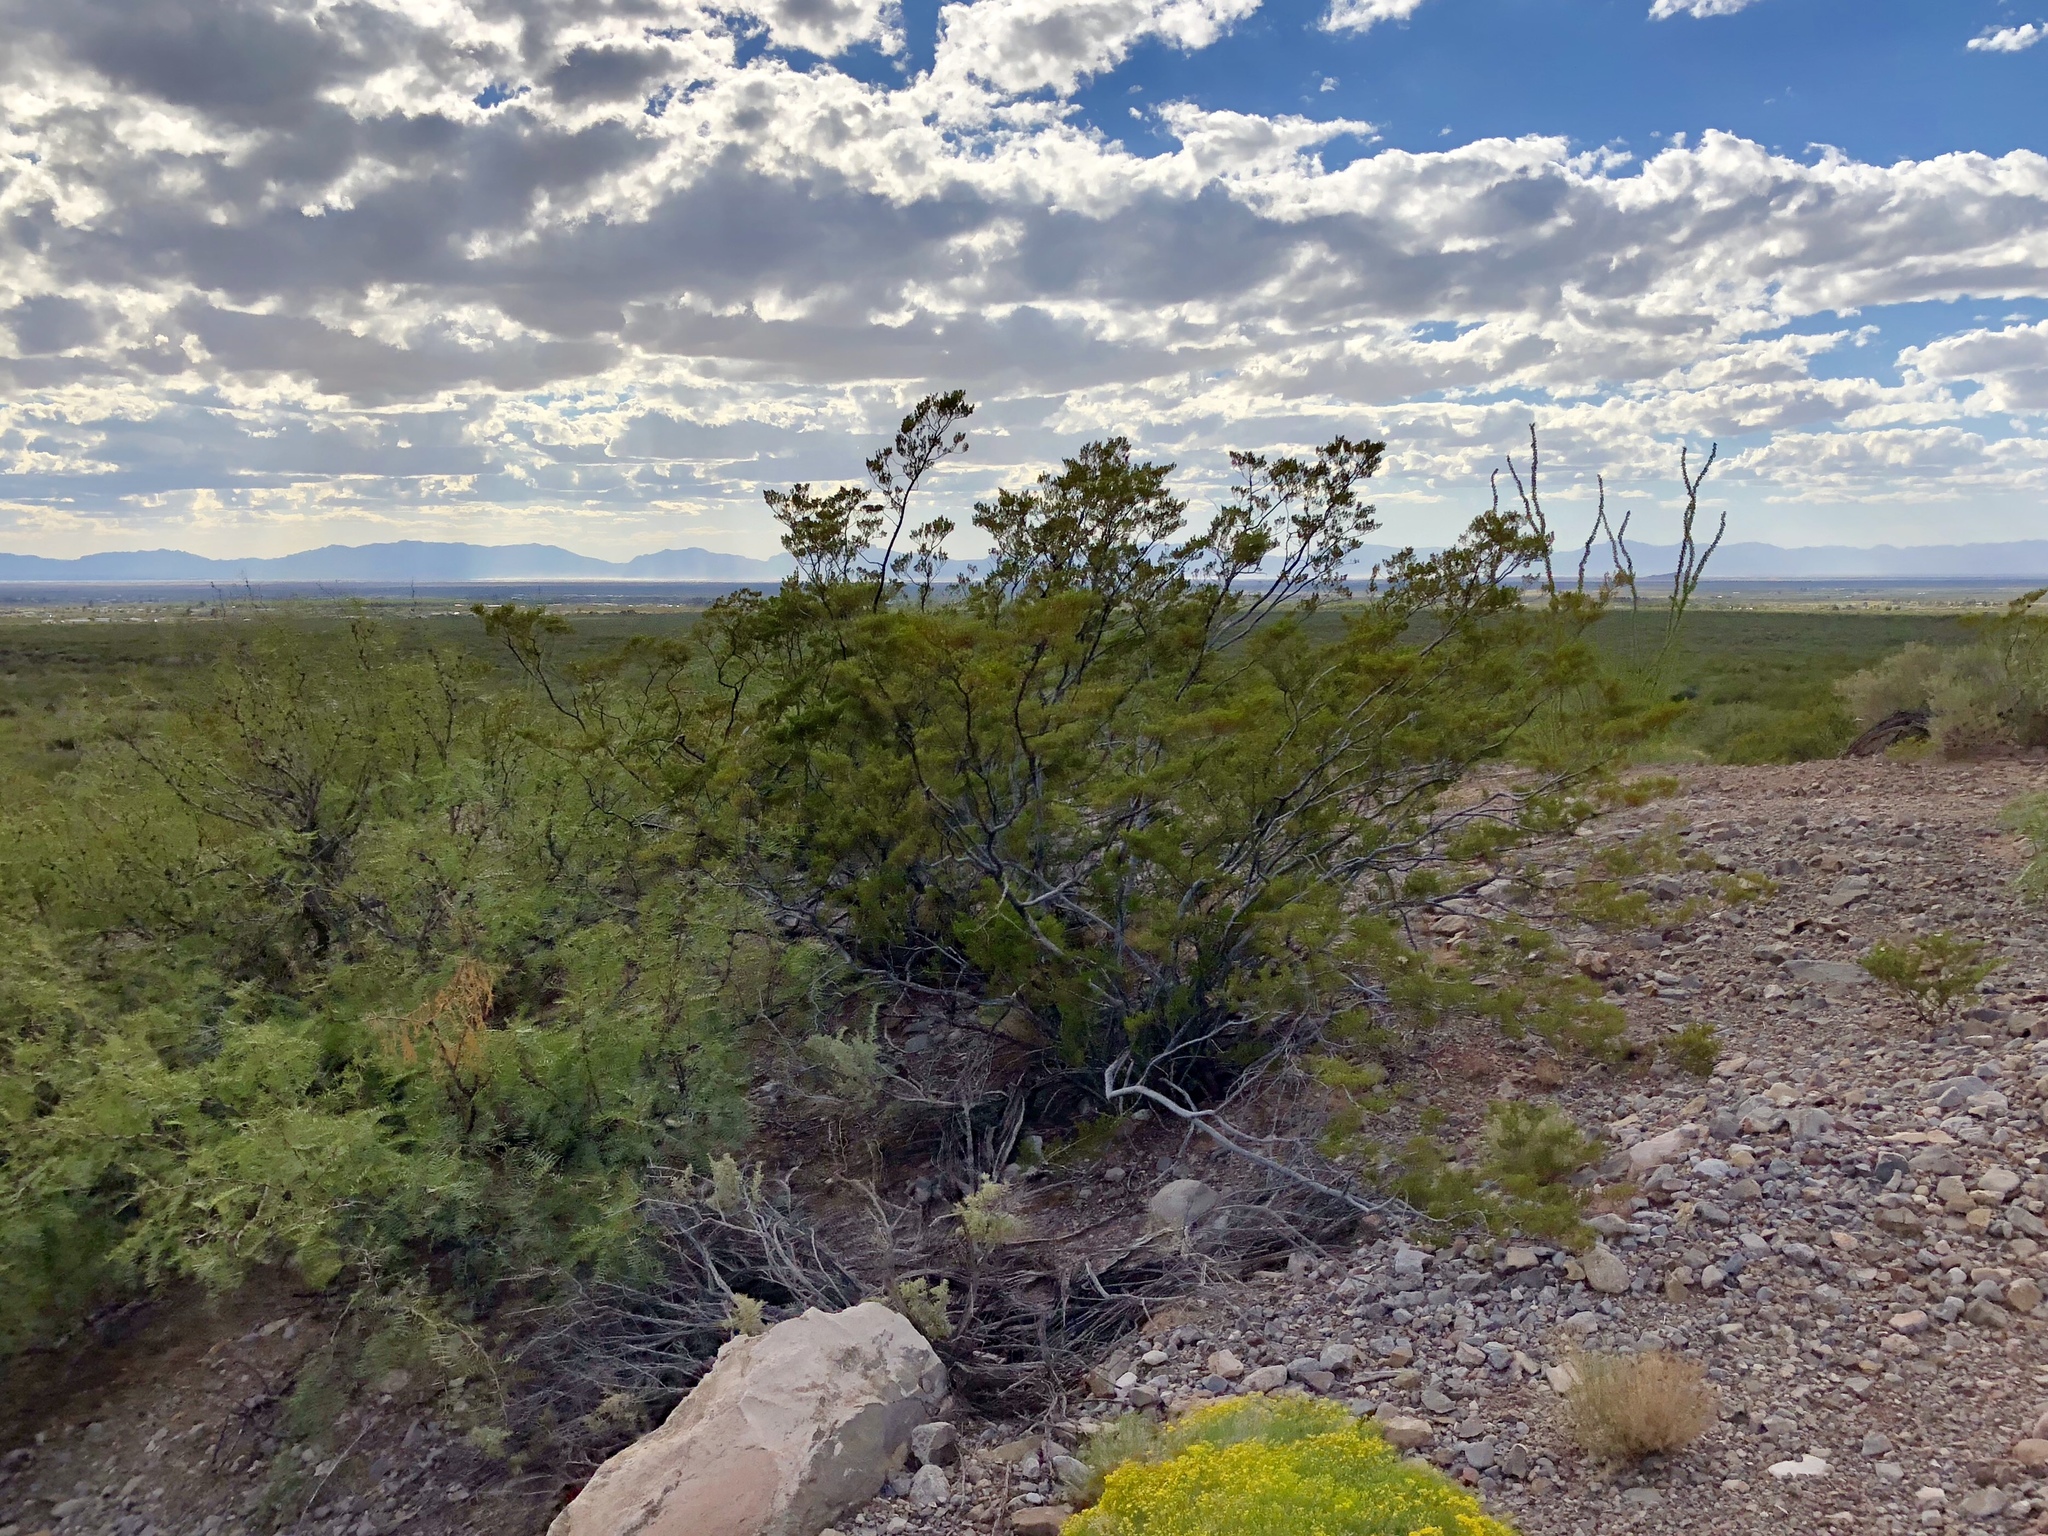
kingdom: Plantae
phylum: Tracheophyta
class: Magnoliopsida
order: Zygophyllales
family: Zygophyllaceae
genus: Larrea
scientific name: Larrea tridentata
